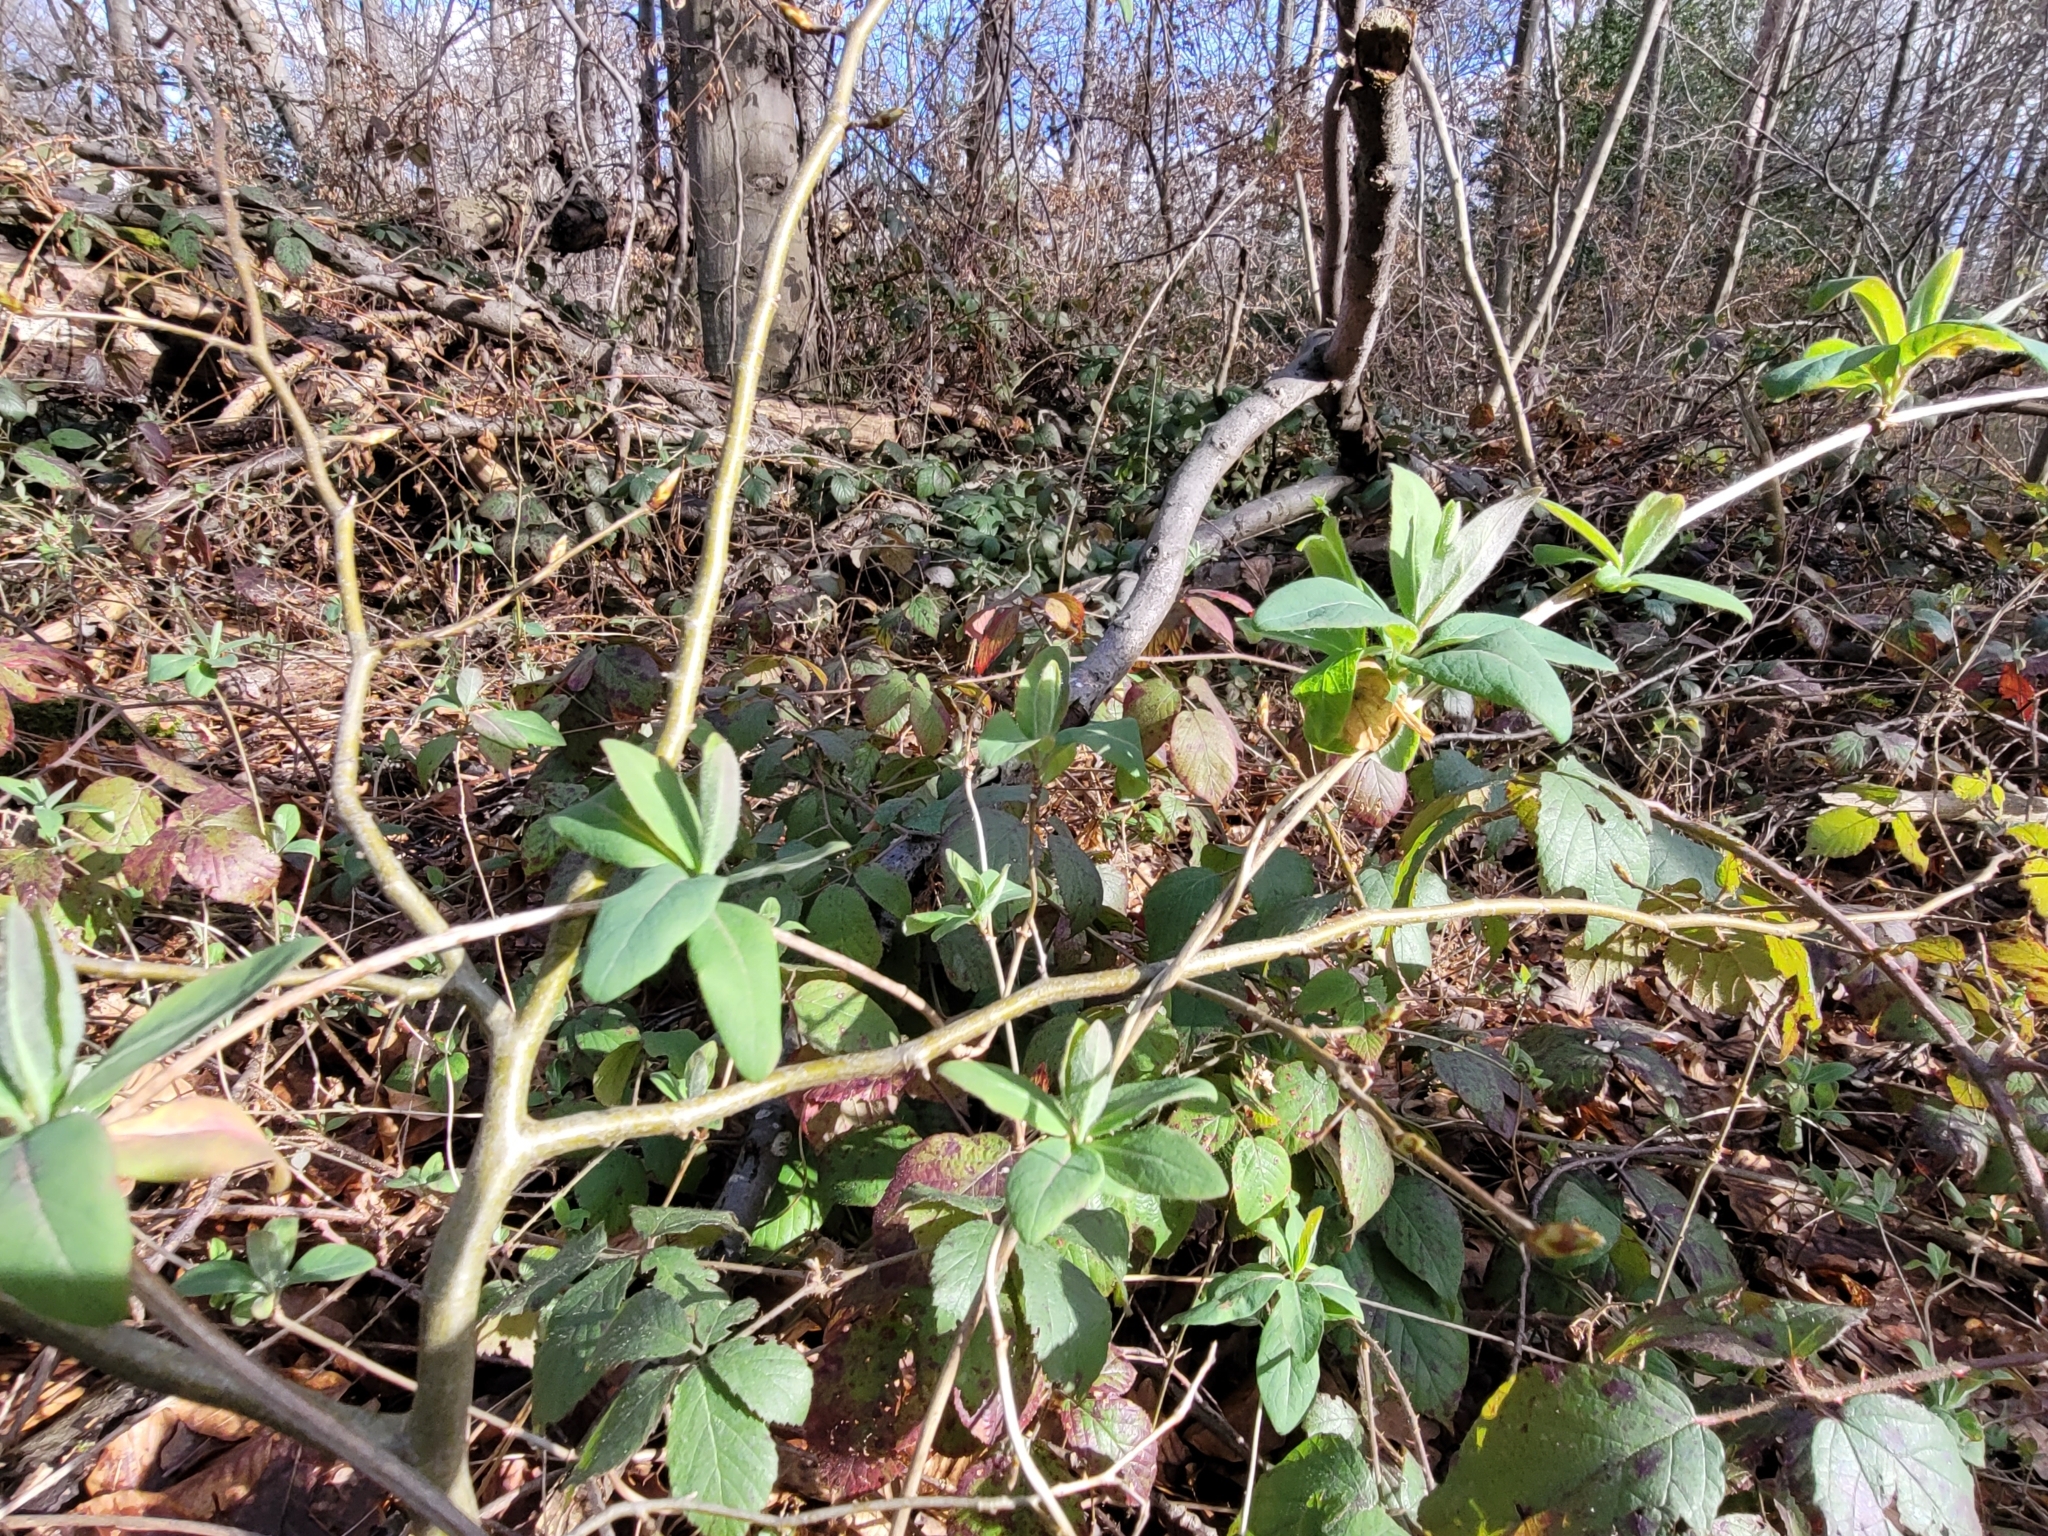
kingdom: Plantae
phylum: Tracheophyta
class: Magnoliopsida
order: Dipsacales
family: Caprifoliaceae
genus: Lonicera
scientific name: Lonicera periclymenum
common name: European honeysuckle
